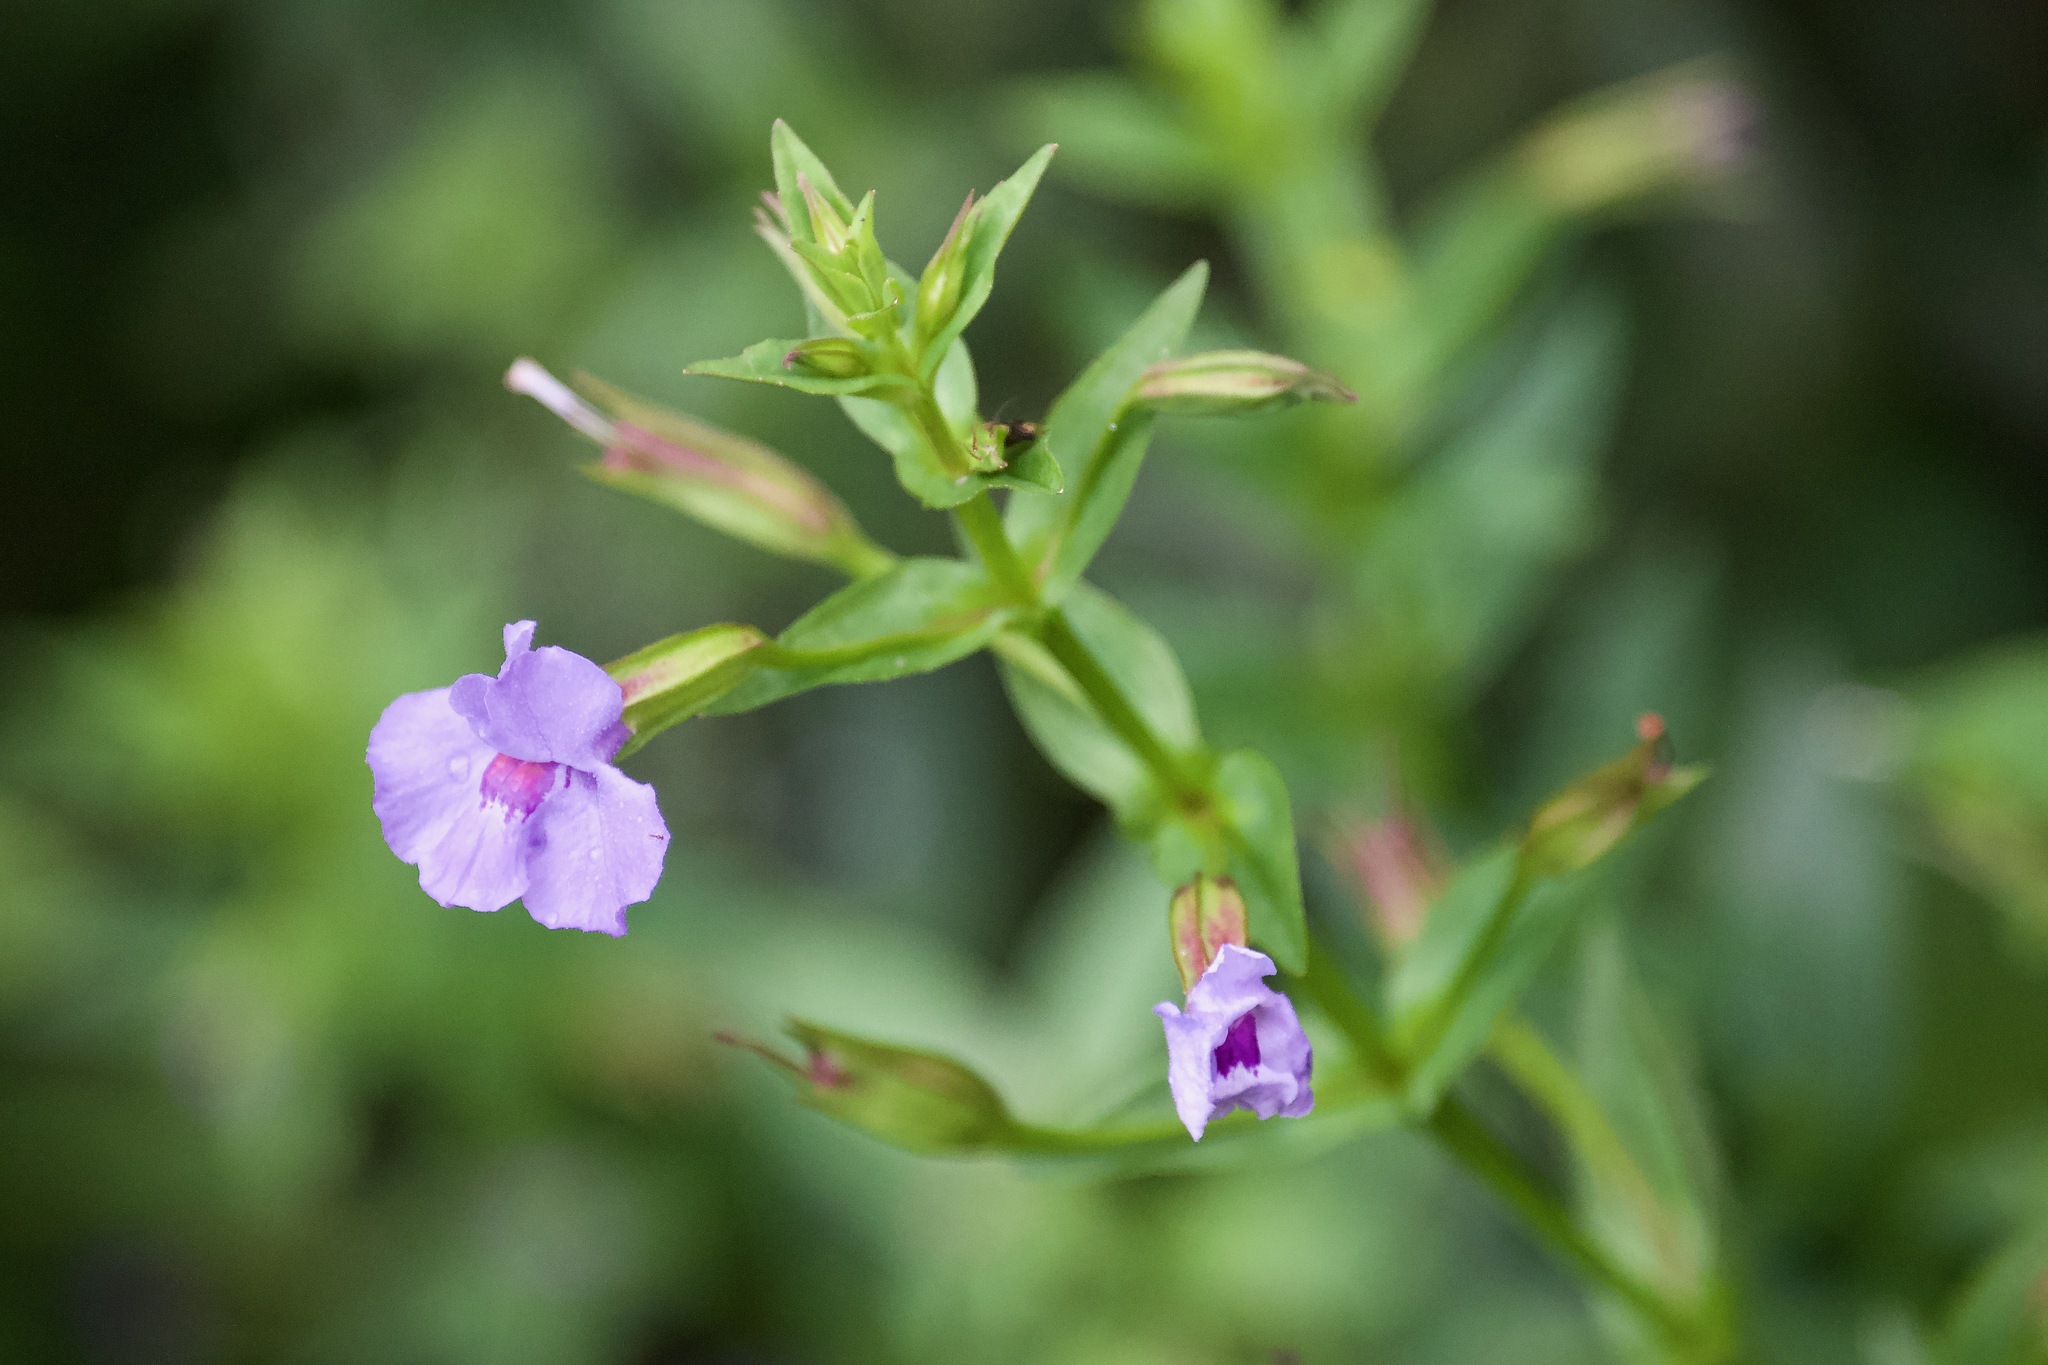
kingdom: Plantae
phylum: Tracheophyta
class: Magnoliopsida
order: Lamiales
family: Phrymaceae
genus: Mimulus
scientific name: Mimulus ringens
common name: Allegheny monkeyflower
